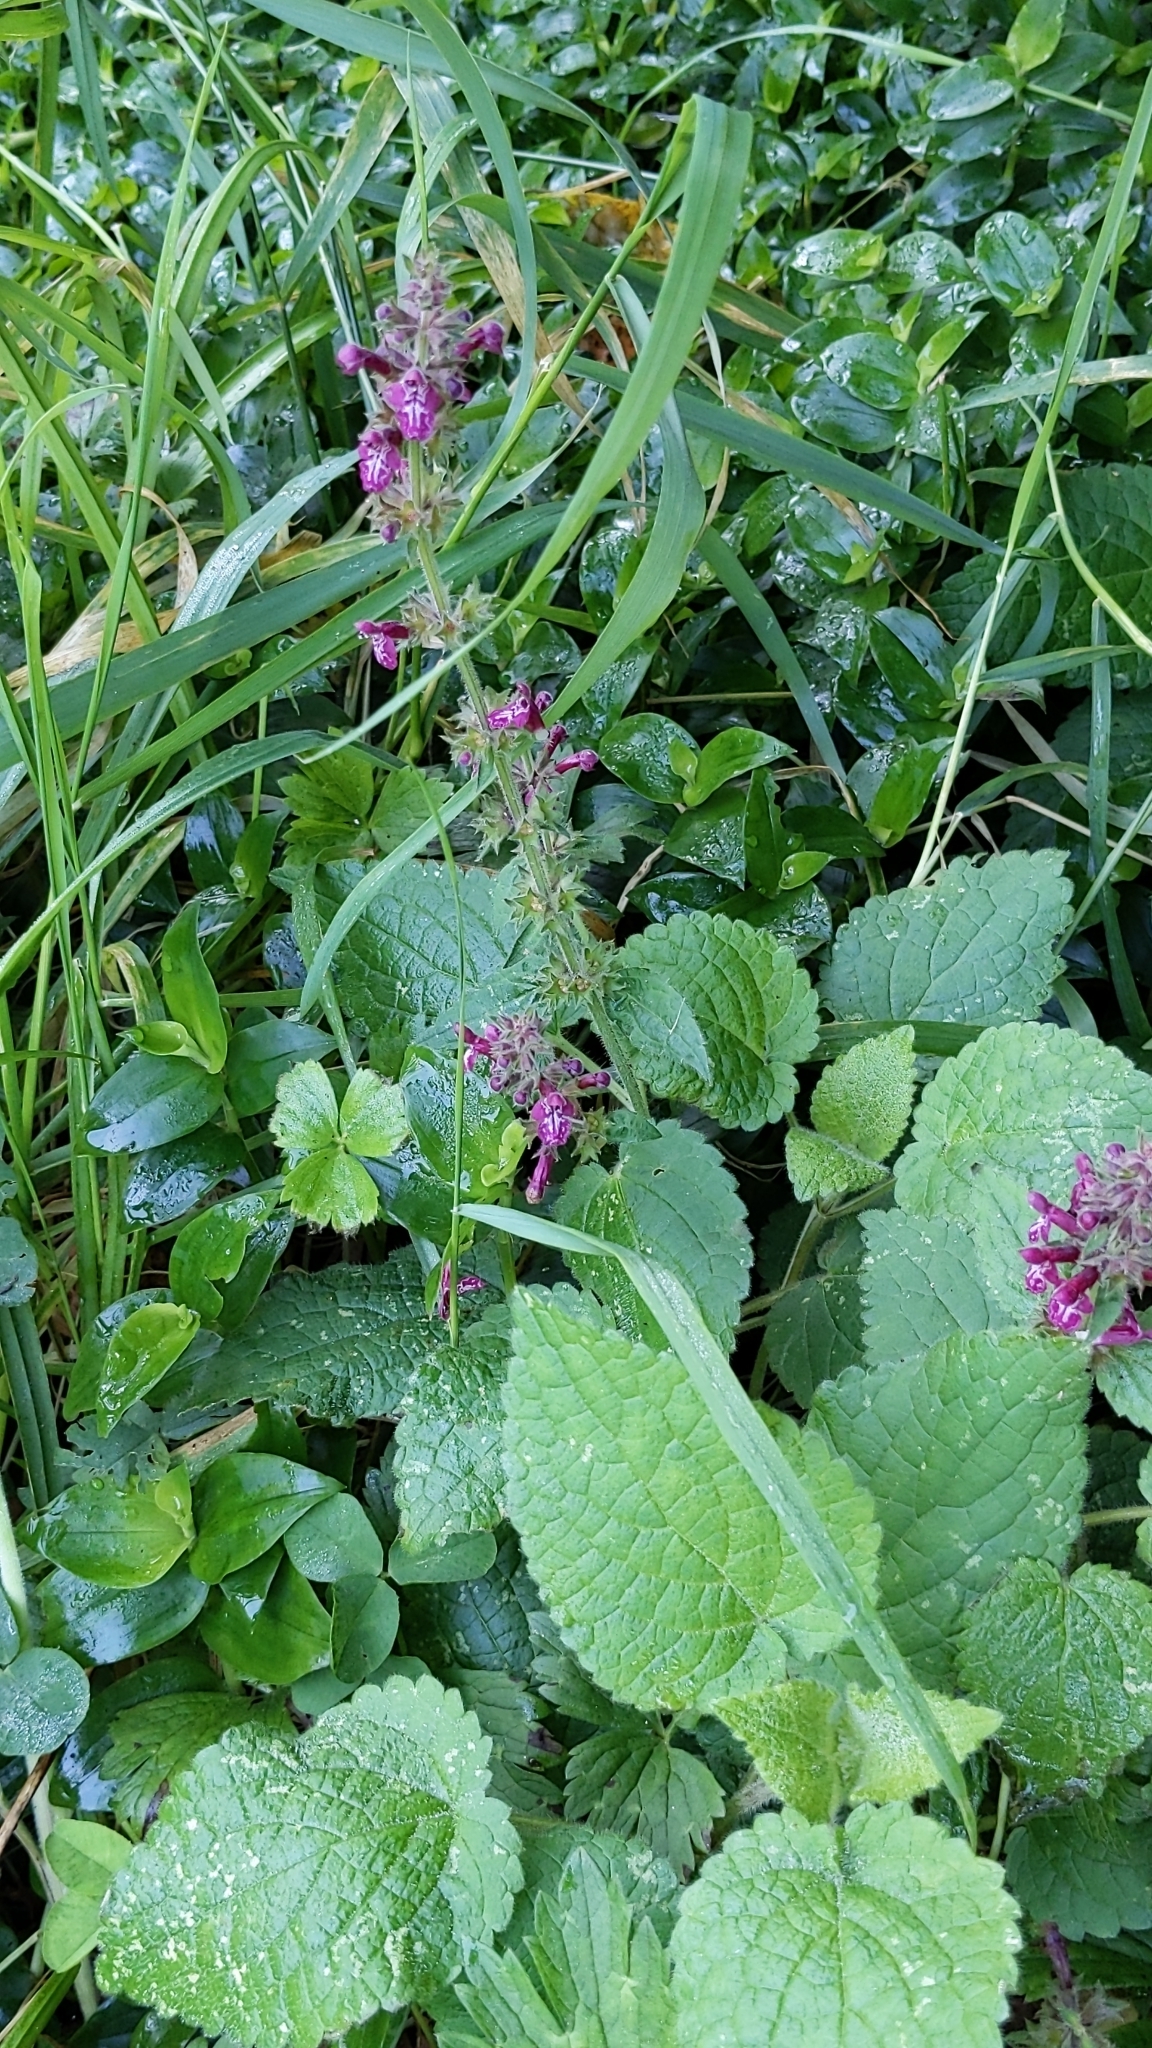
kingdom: Plantae
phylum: Tracheophyta
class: Magnoliopsida
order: Lamiales
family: Lamiaceae
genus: Stachys
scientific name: Stachys sylvatica
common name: Hedge woundwort
